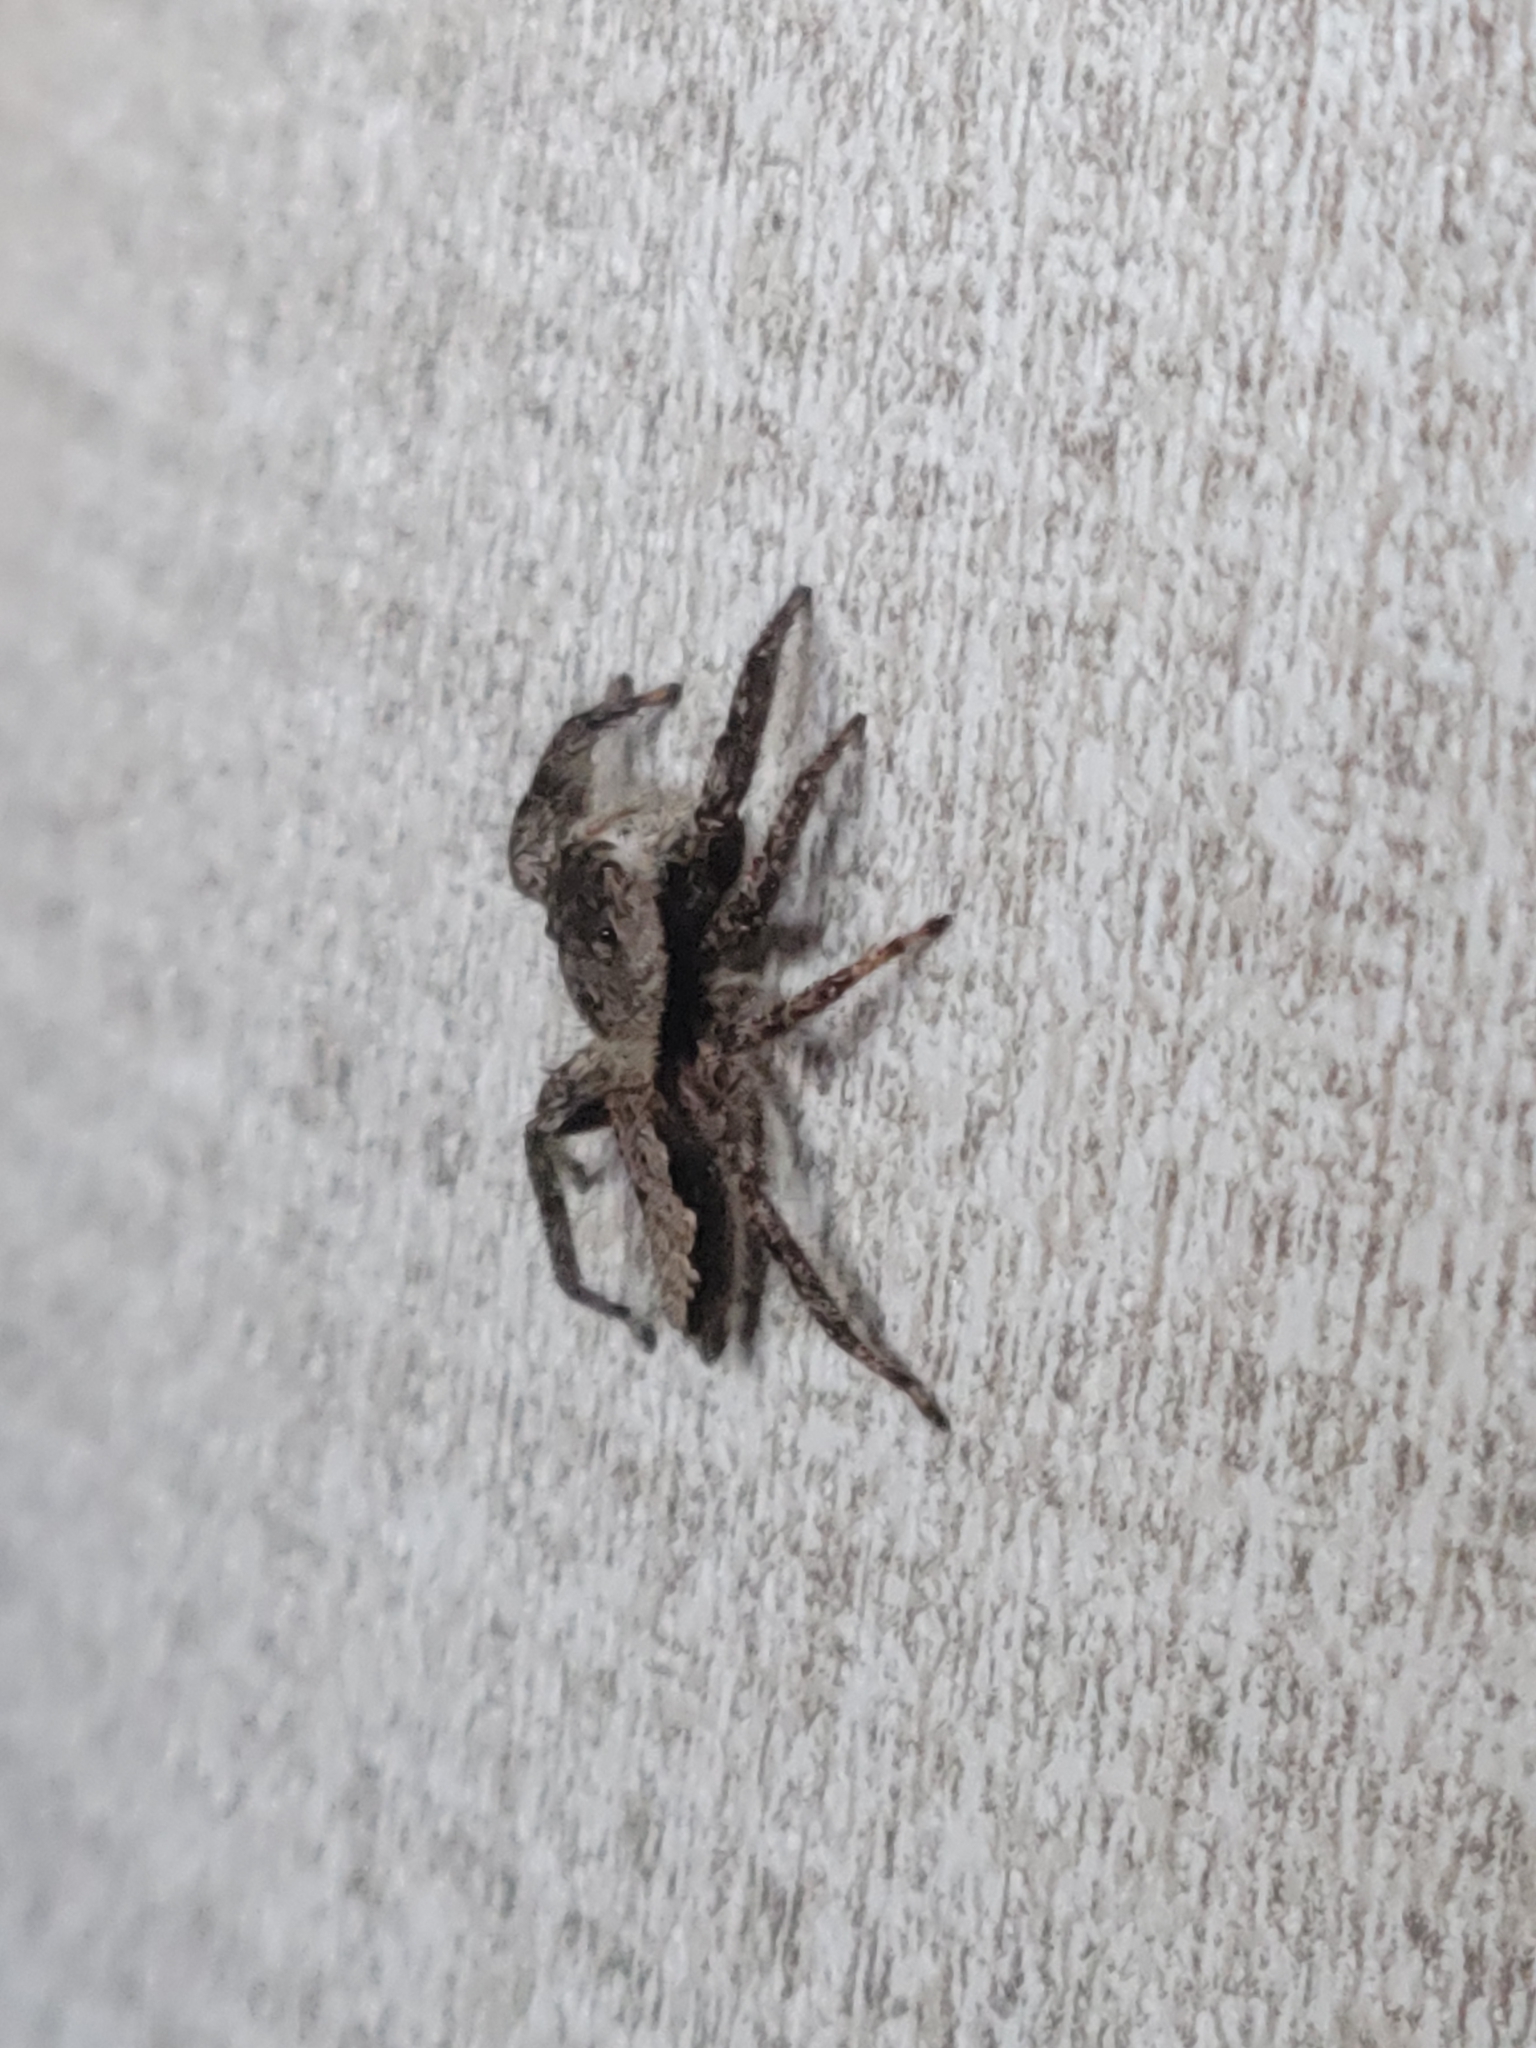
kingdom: Animalia
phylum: Arthropoda
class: Arachnida
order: Araneae
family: Salticidae
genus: Platycryptus
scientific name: Platycryptus undatus
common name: Tan jumping spider
